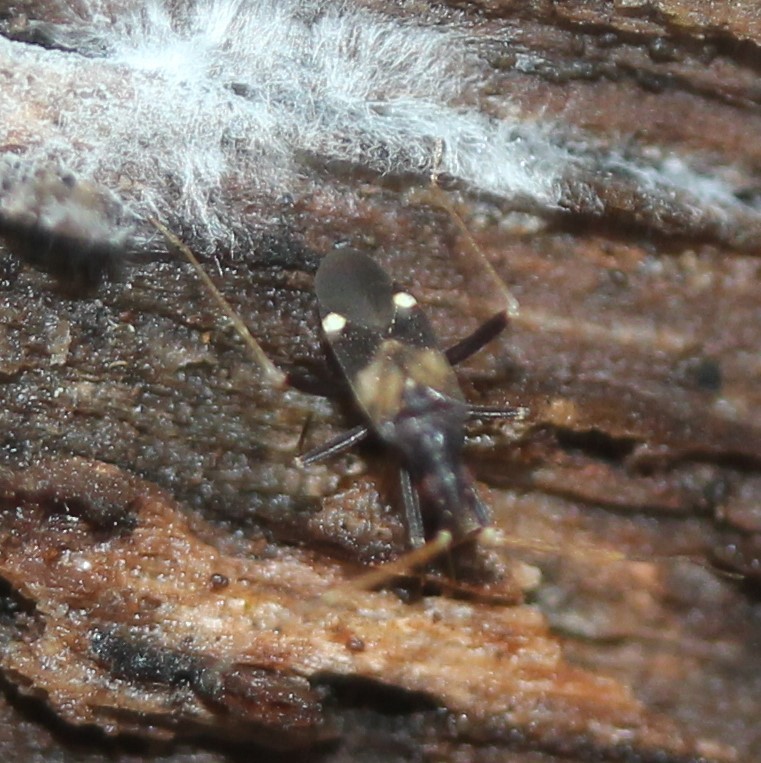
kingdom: Animalia
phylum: Arthropoda
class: Insecta
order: Hemiptera
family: Miridae
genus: Fulvius
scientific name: Fulvius slateri
